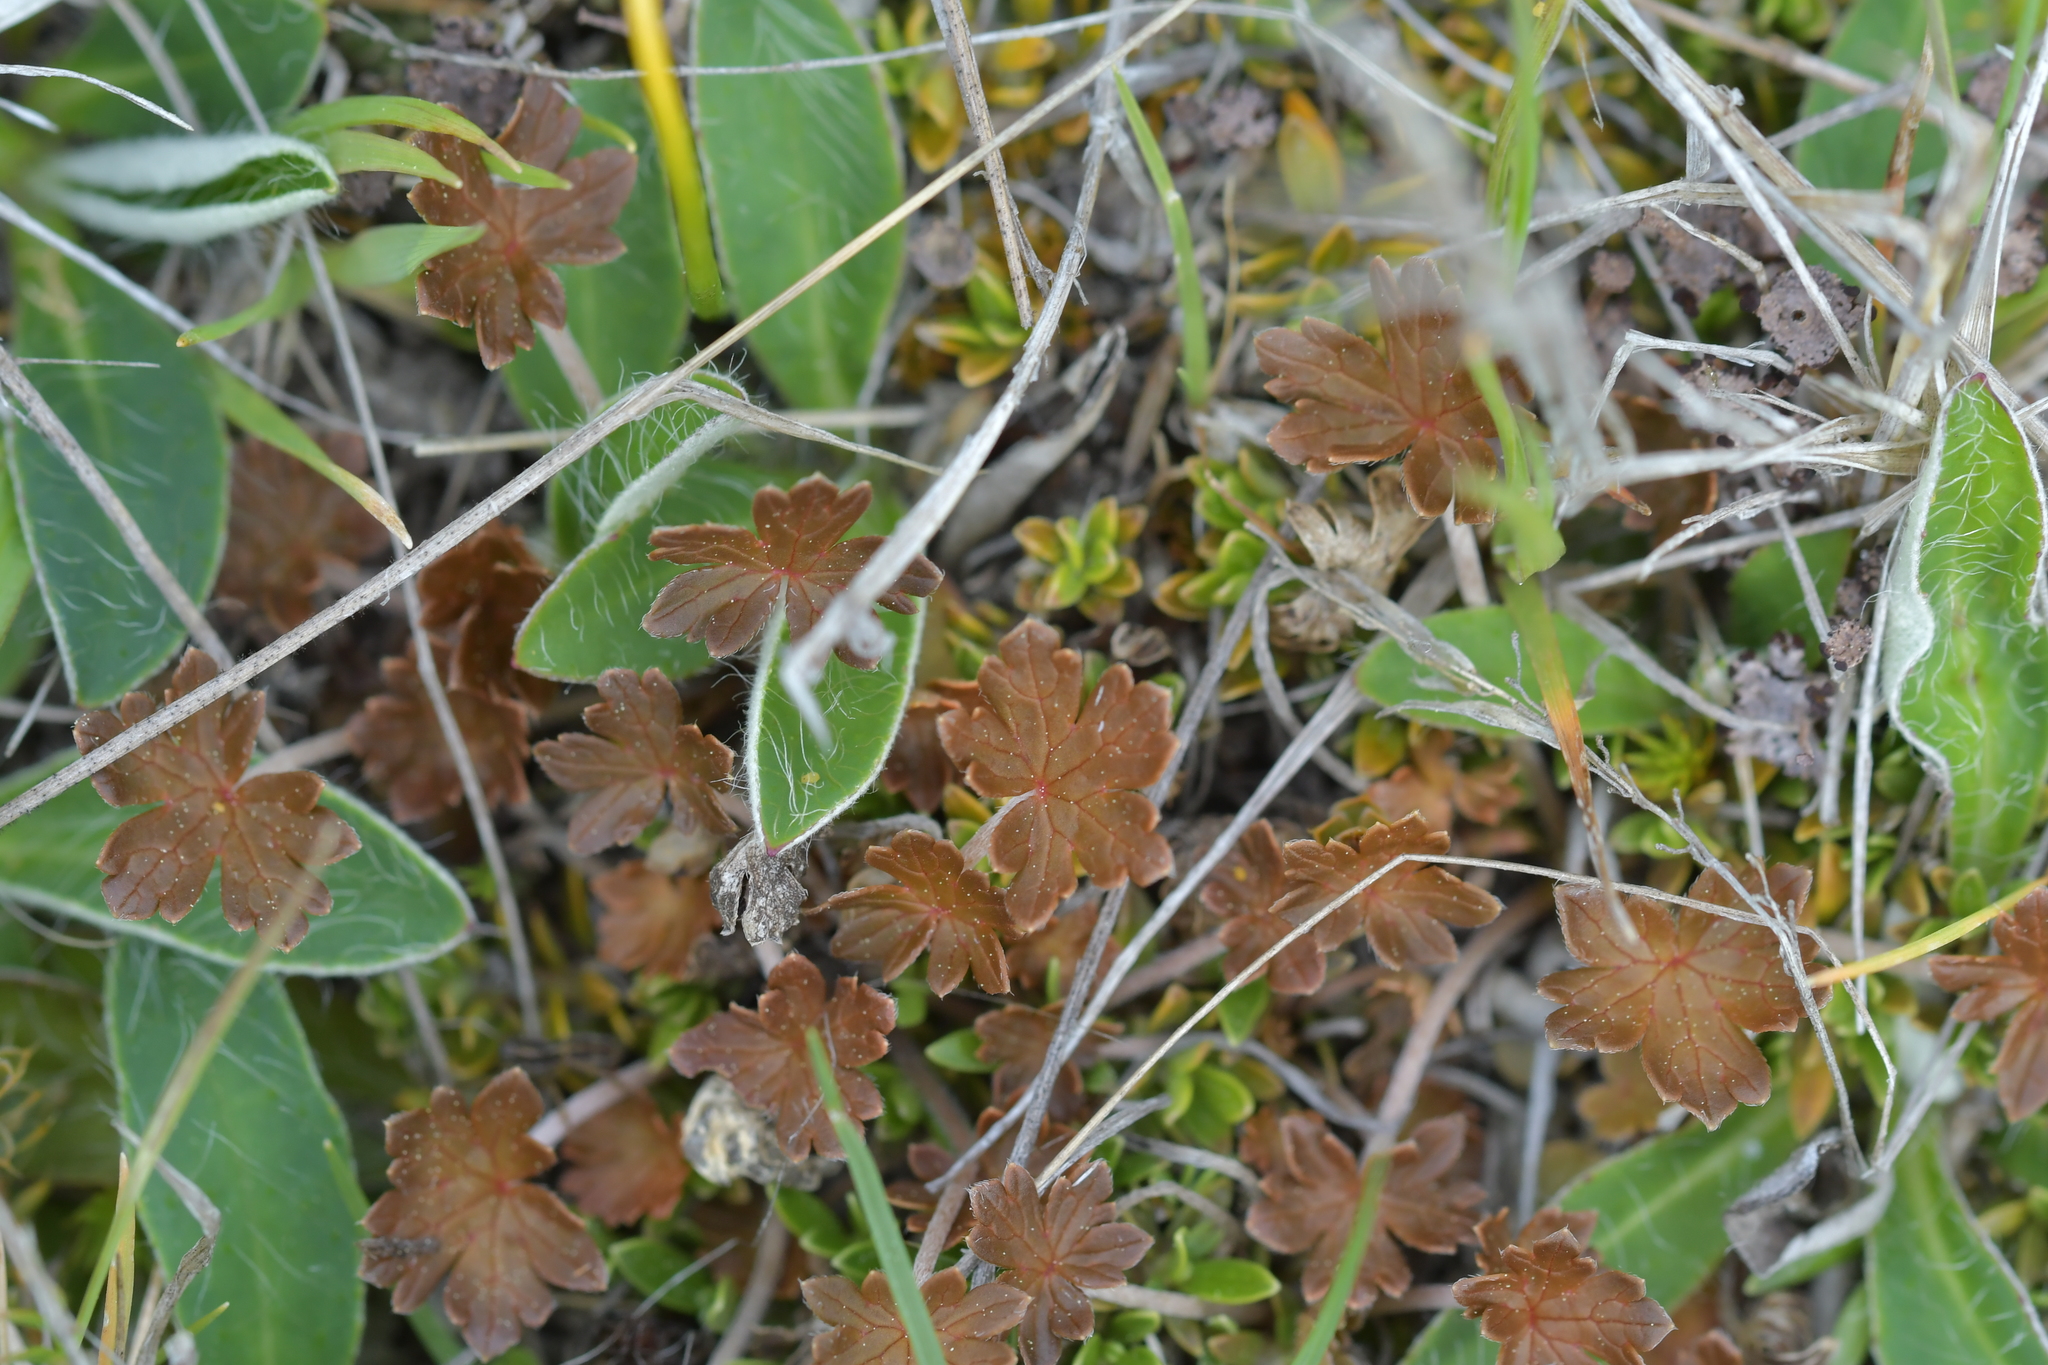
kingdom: Plantae
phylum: Tracheophyta
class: Magnoliopsida
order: Geraniales
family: Geraniaceae
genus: Geranium
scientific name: Geranium brevicaule
